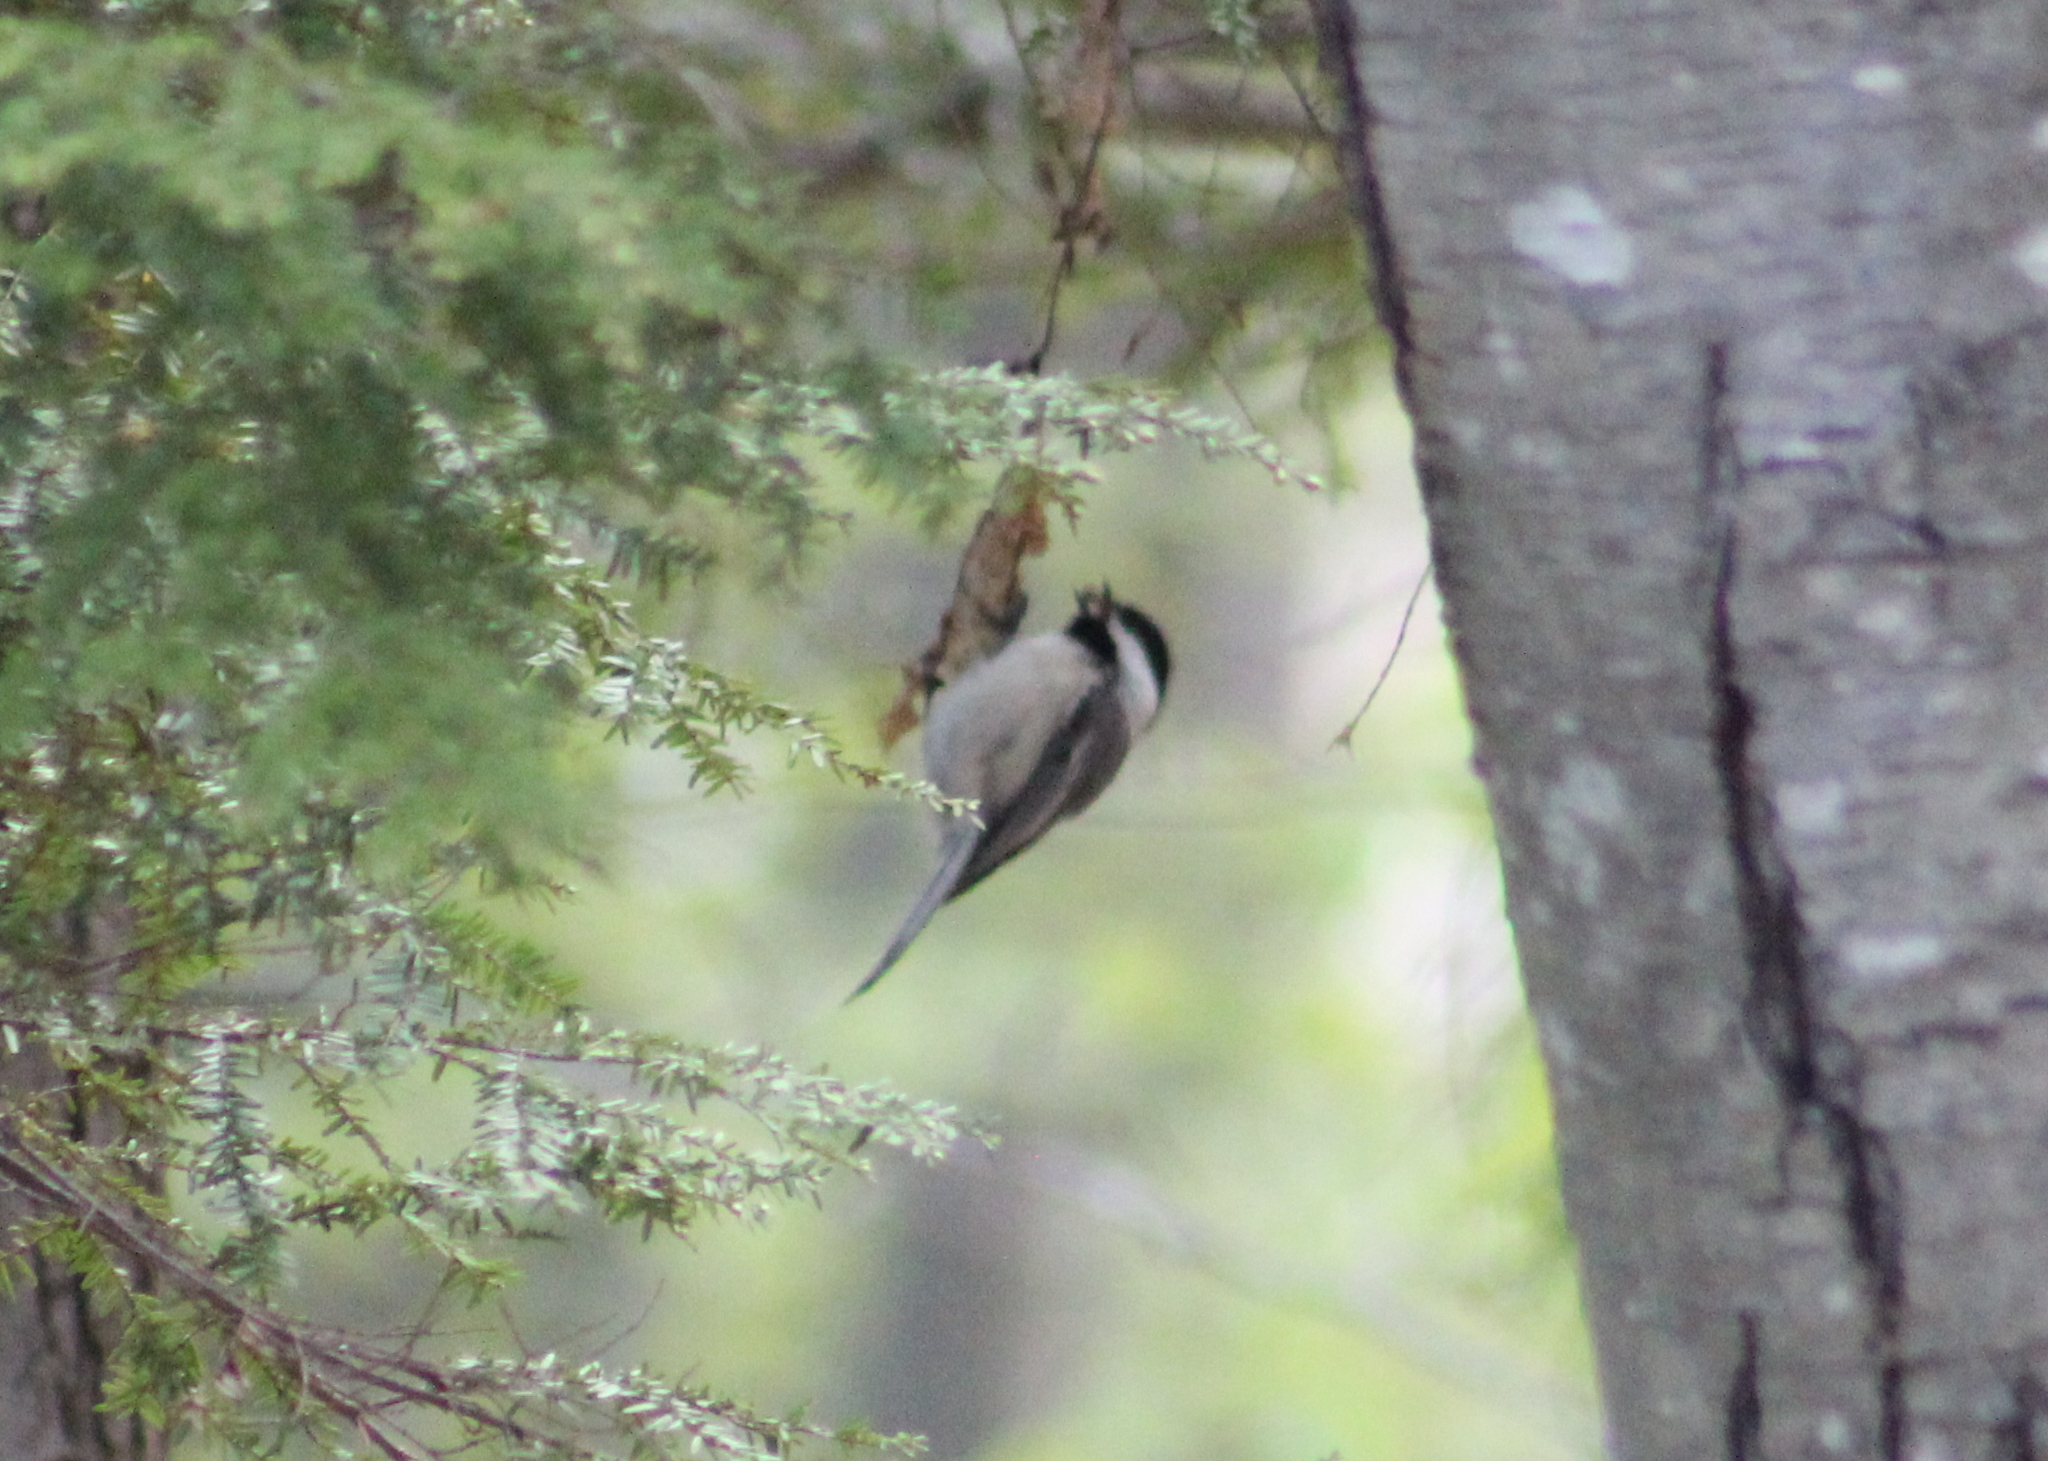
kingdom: Animalia
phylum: Chordata
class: Aves
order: Passeriformes
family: Paridae
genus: Poecile
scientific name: Poecile atricapillus
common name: Black-capped chickadee
